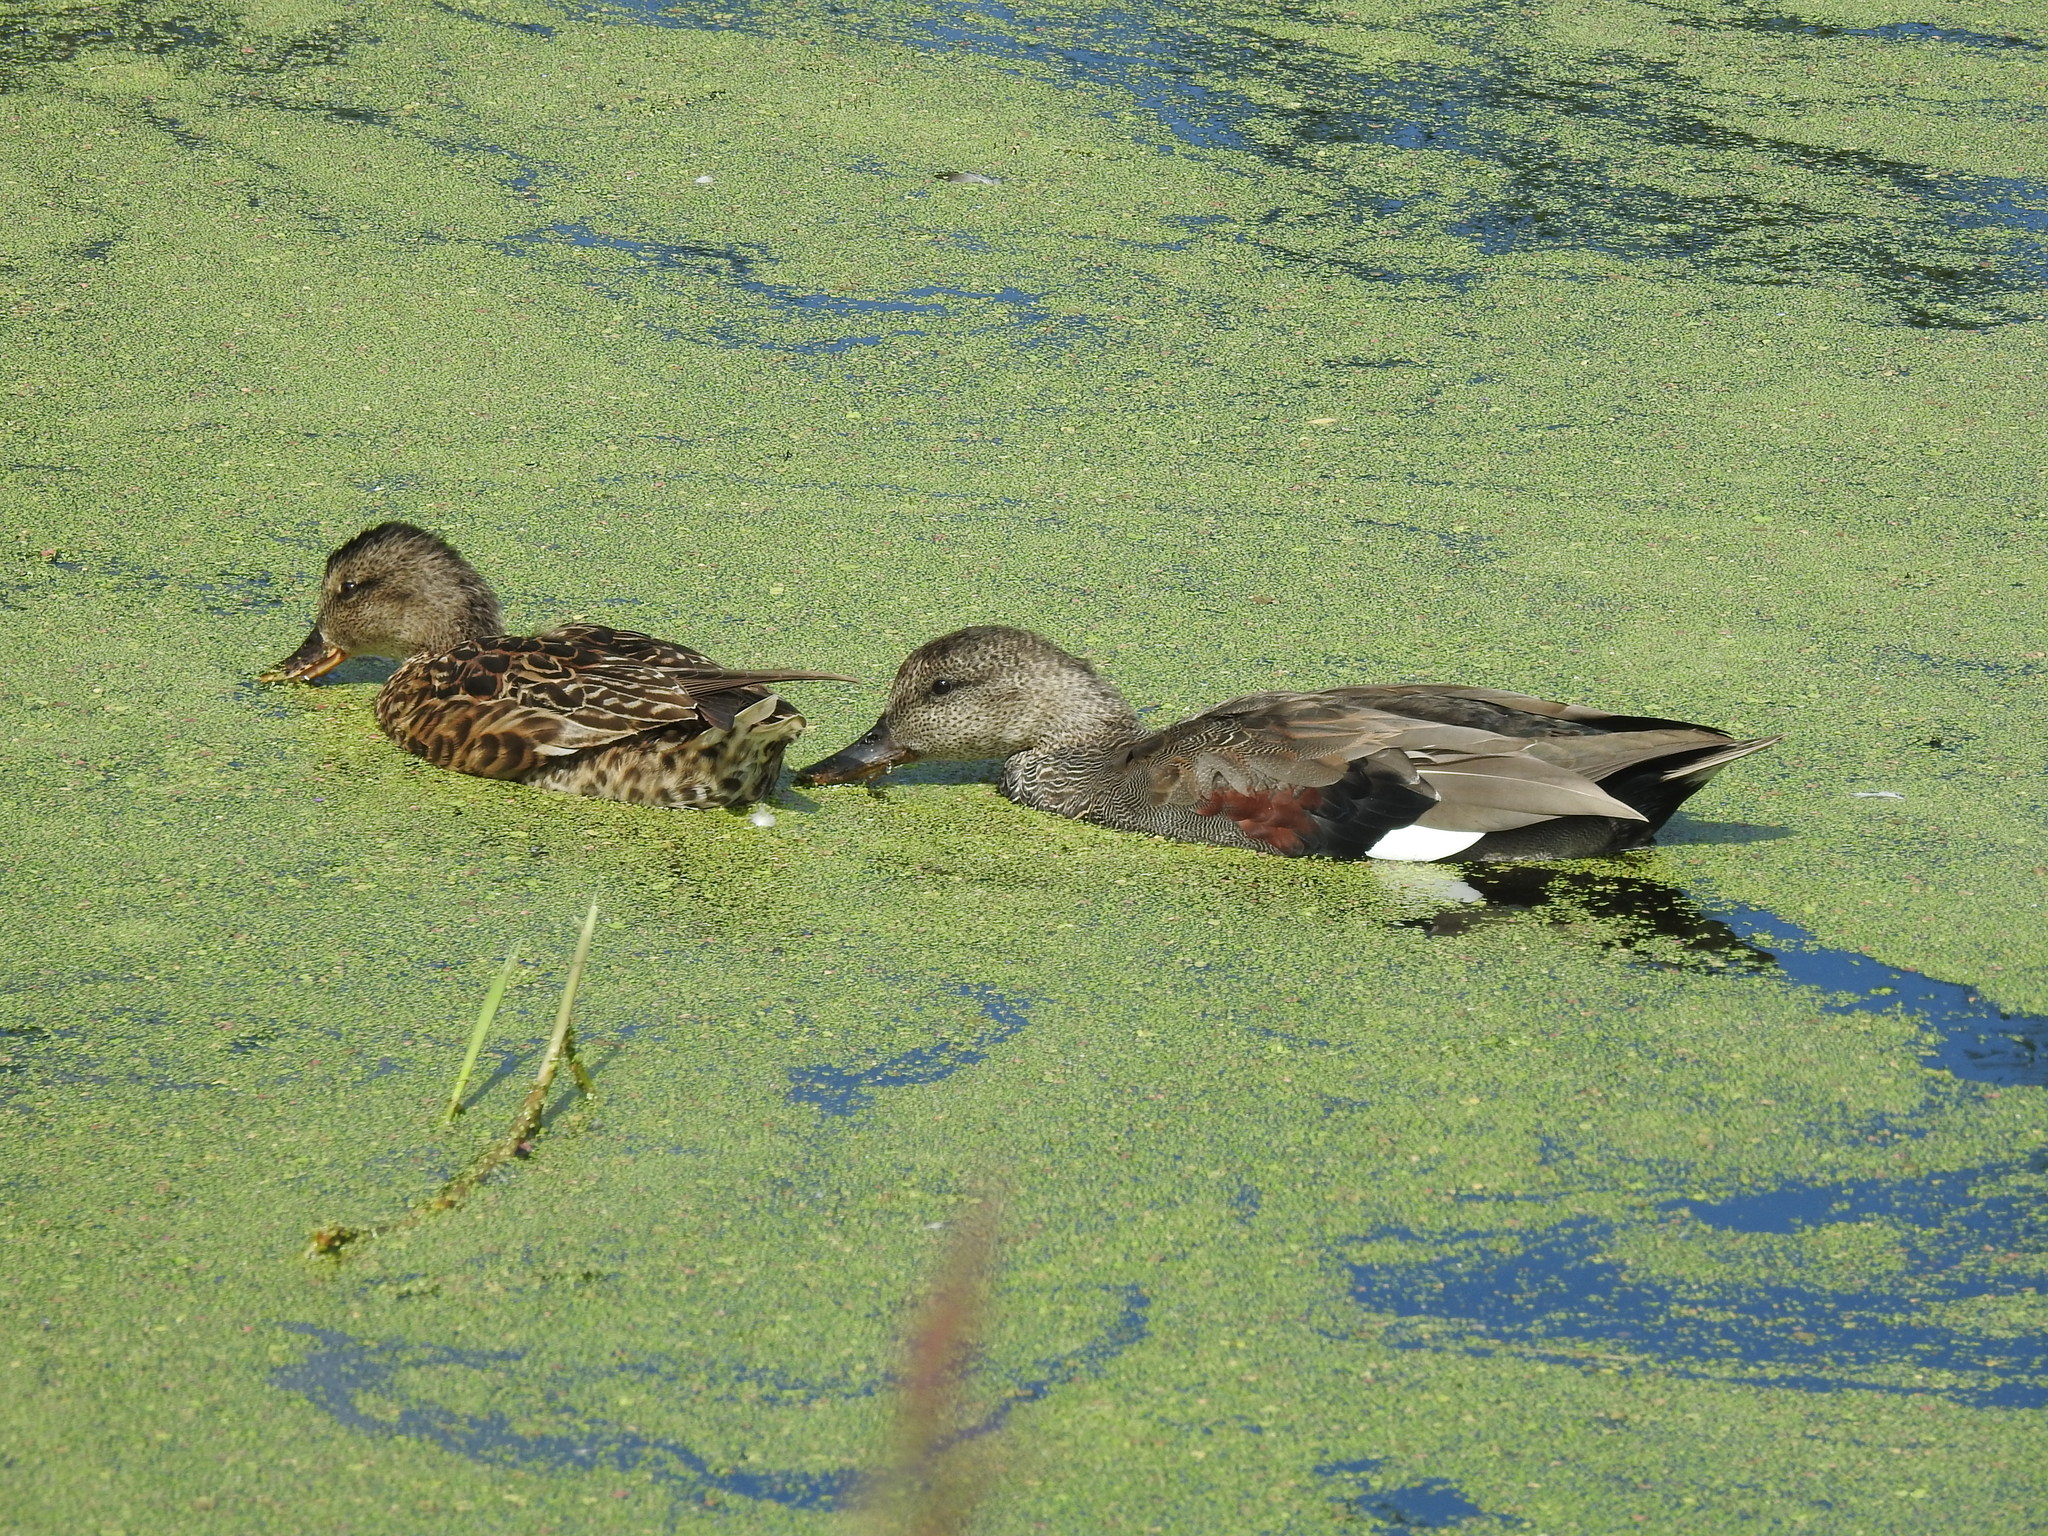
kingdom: Animalia
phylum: Chordata
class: Aves
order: Anseriformes
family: Anatidae
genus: Mareca
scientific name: Mareca strepera
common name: Gadwall
